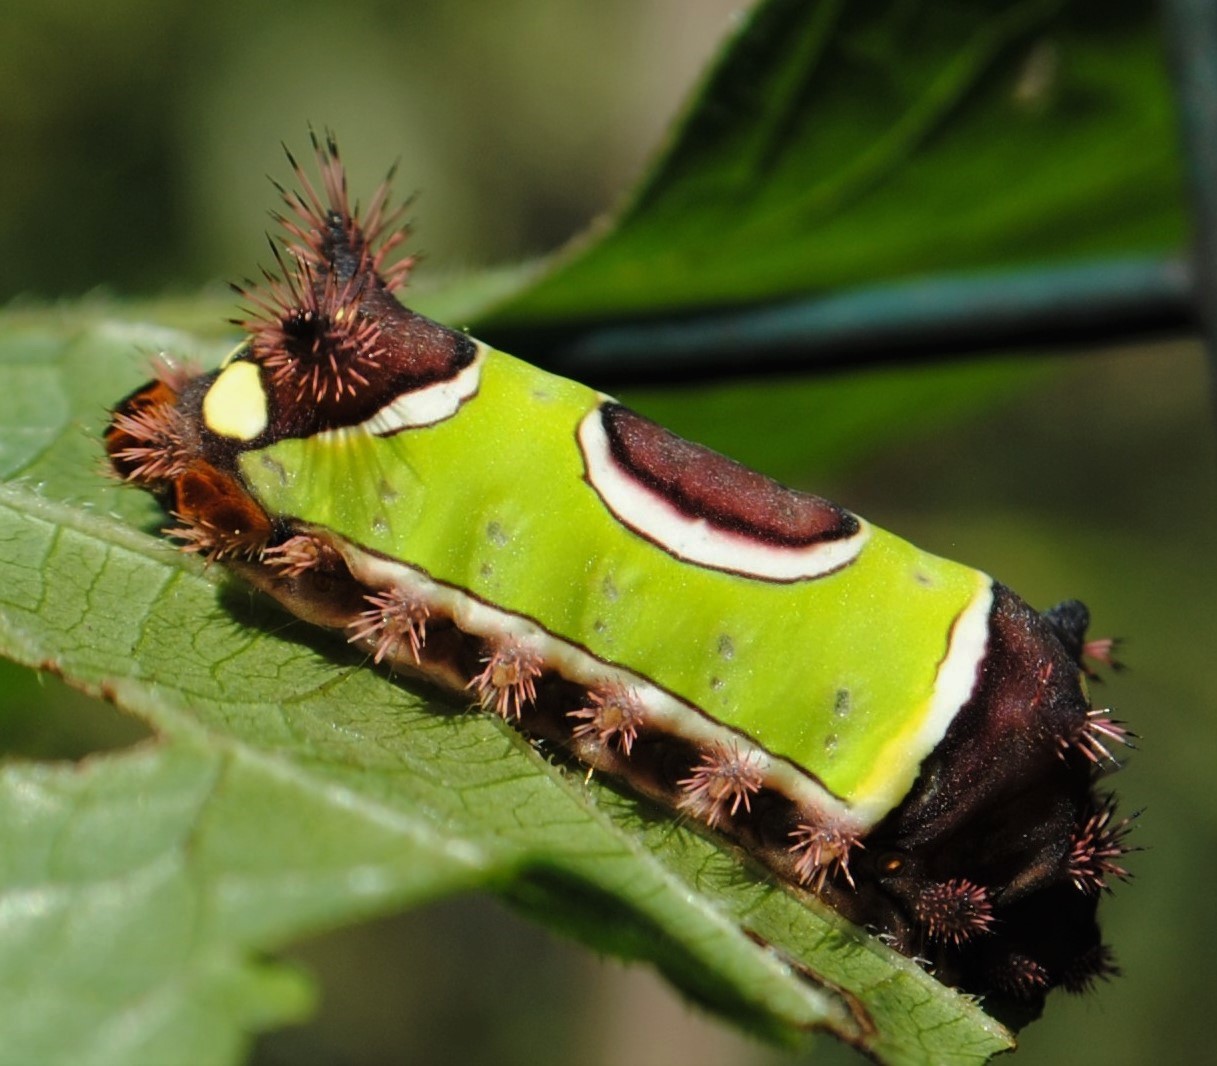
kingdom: Animalia
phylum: Arthropoda
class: Insecta
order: Lepidoptera
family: Limacodidae
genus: Acharia
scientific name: Acharia stimulea
